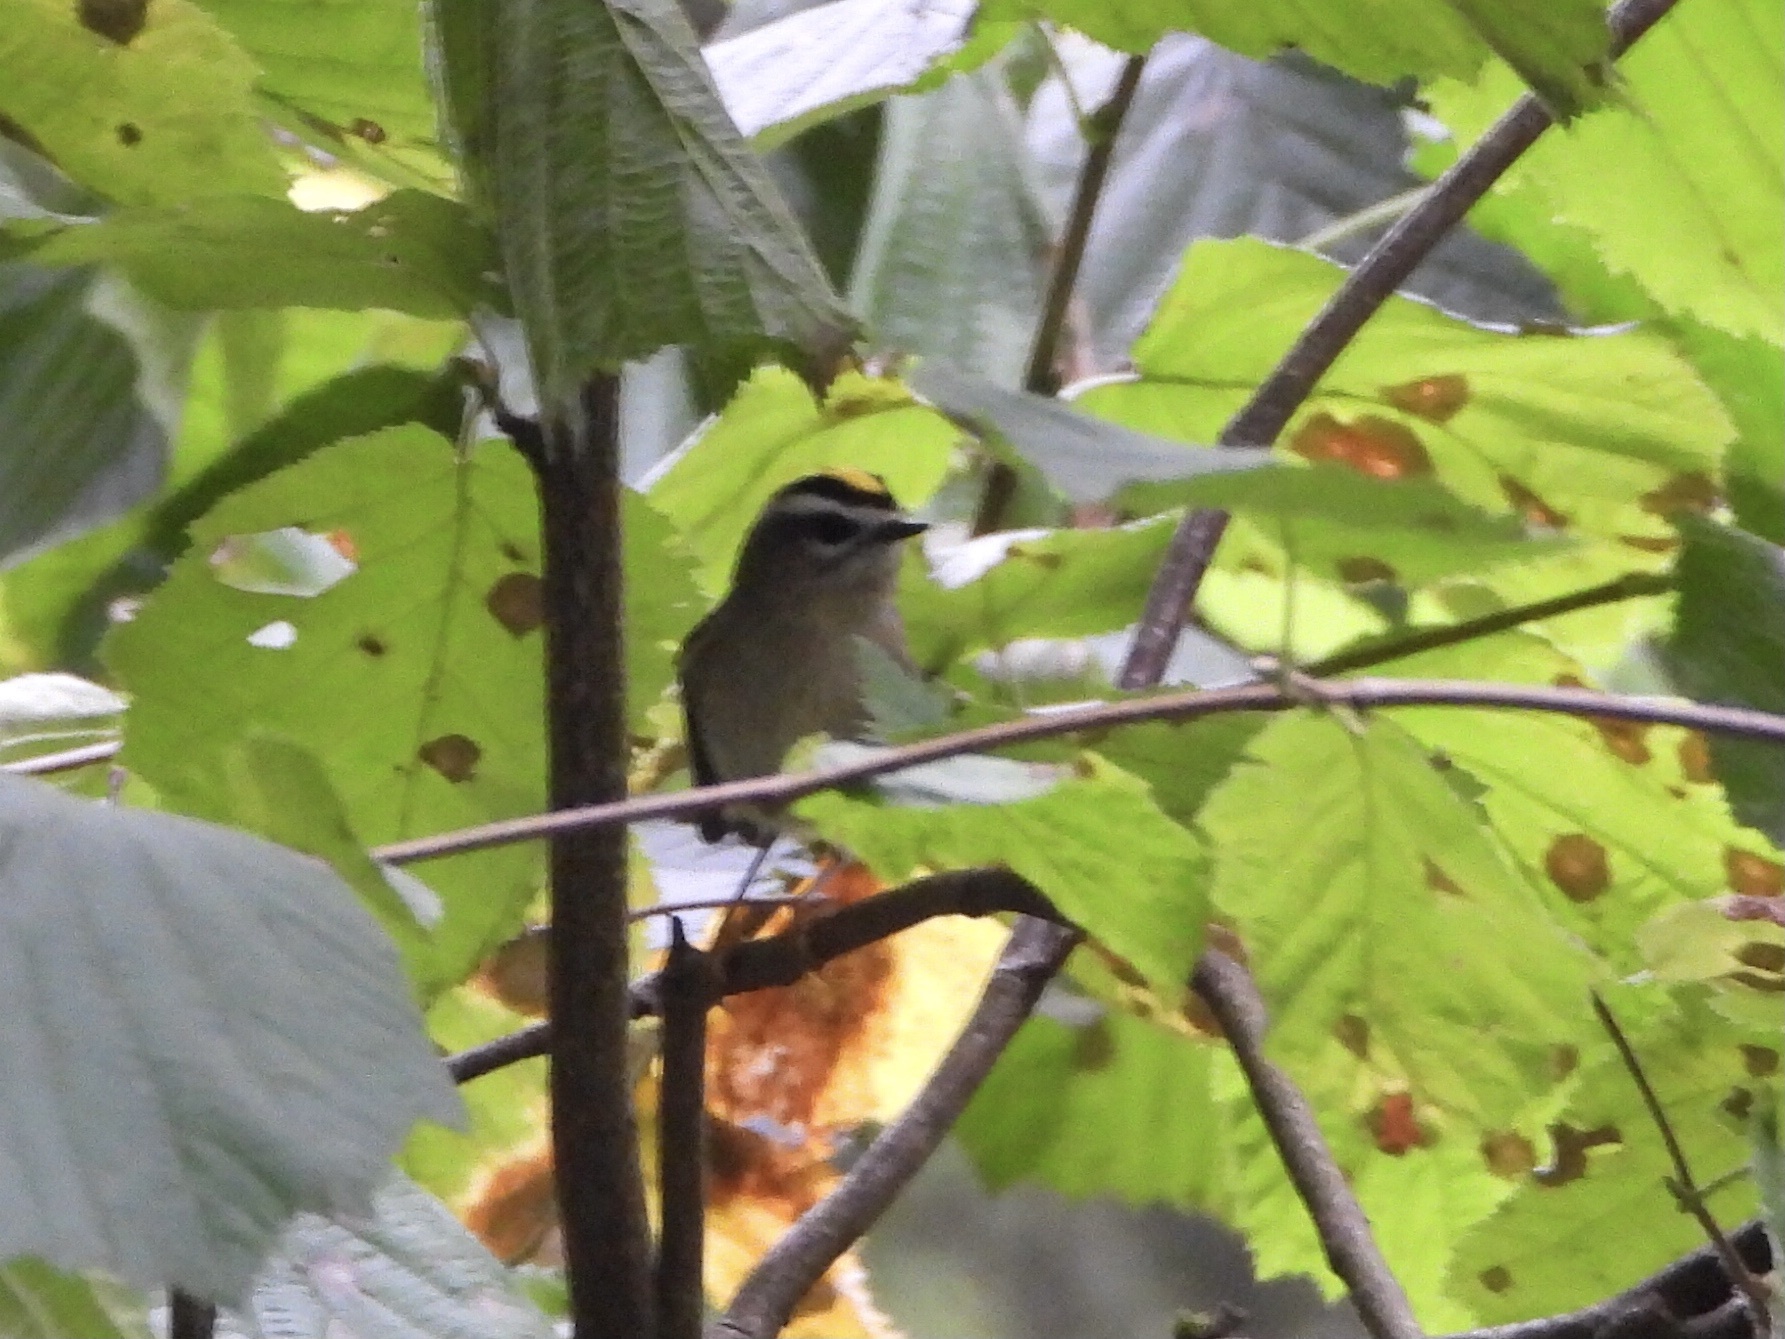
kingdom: Animalia
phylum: Chordata
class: Aves
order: Passeriformes
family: Regulidae
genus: Regulus
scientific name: Regulus satrapa
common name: Golden-crowned kinglet
